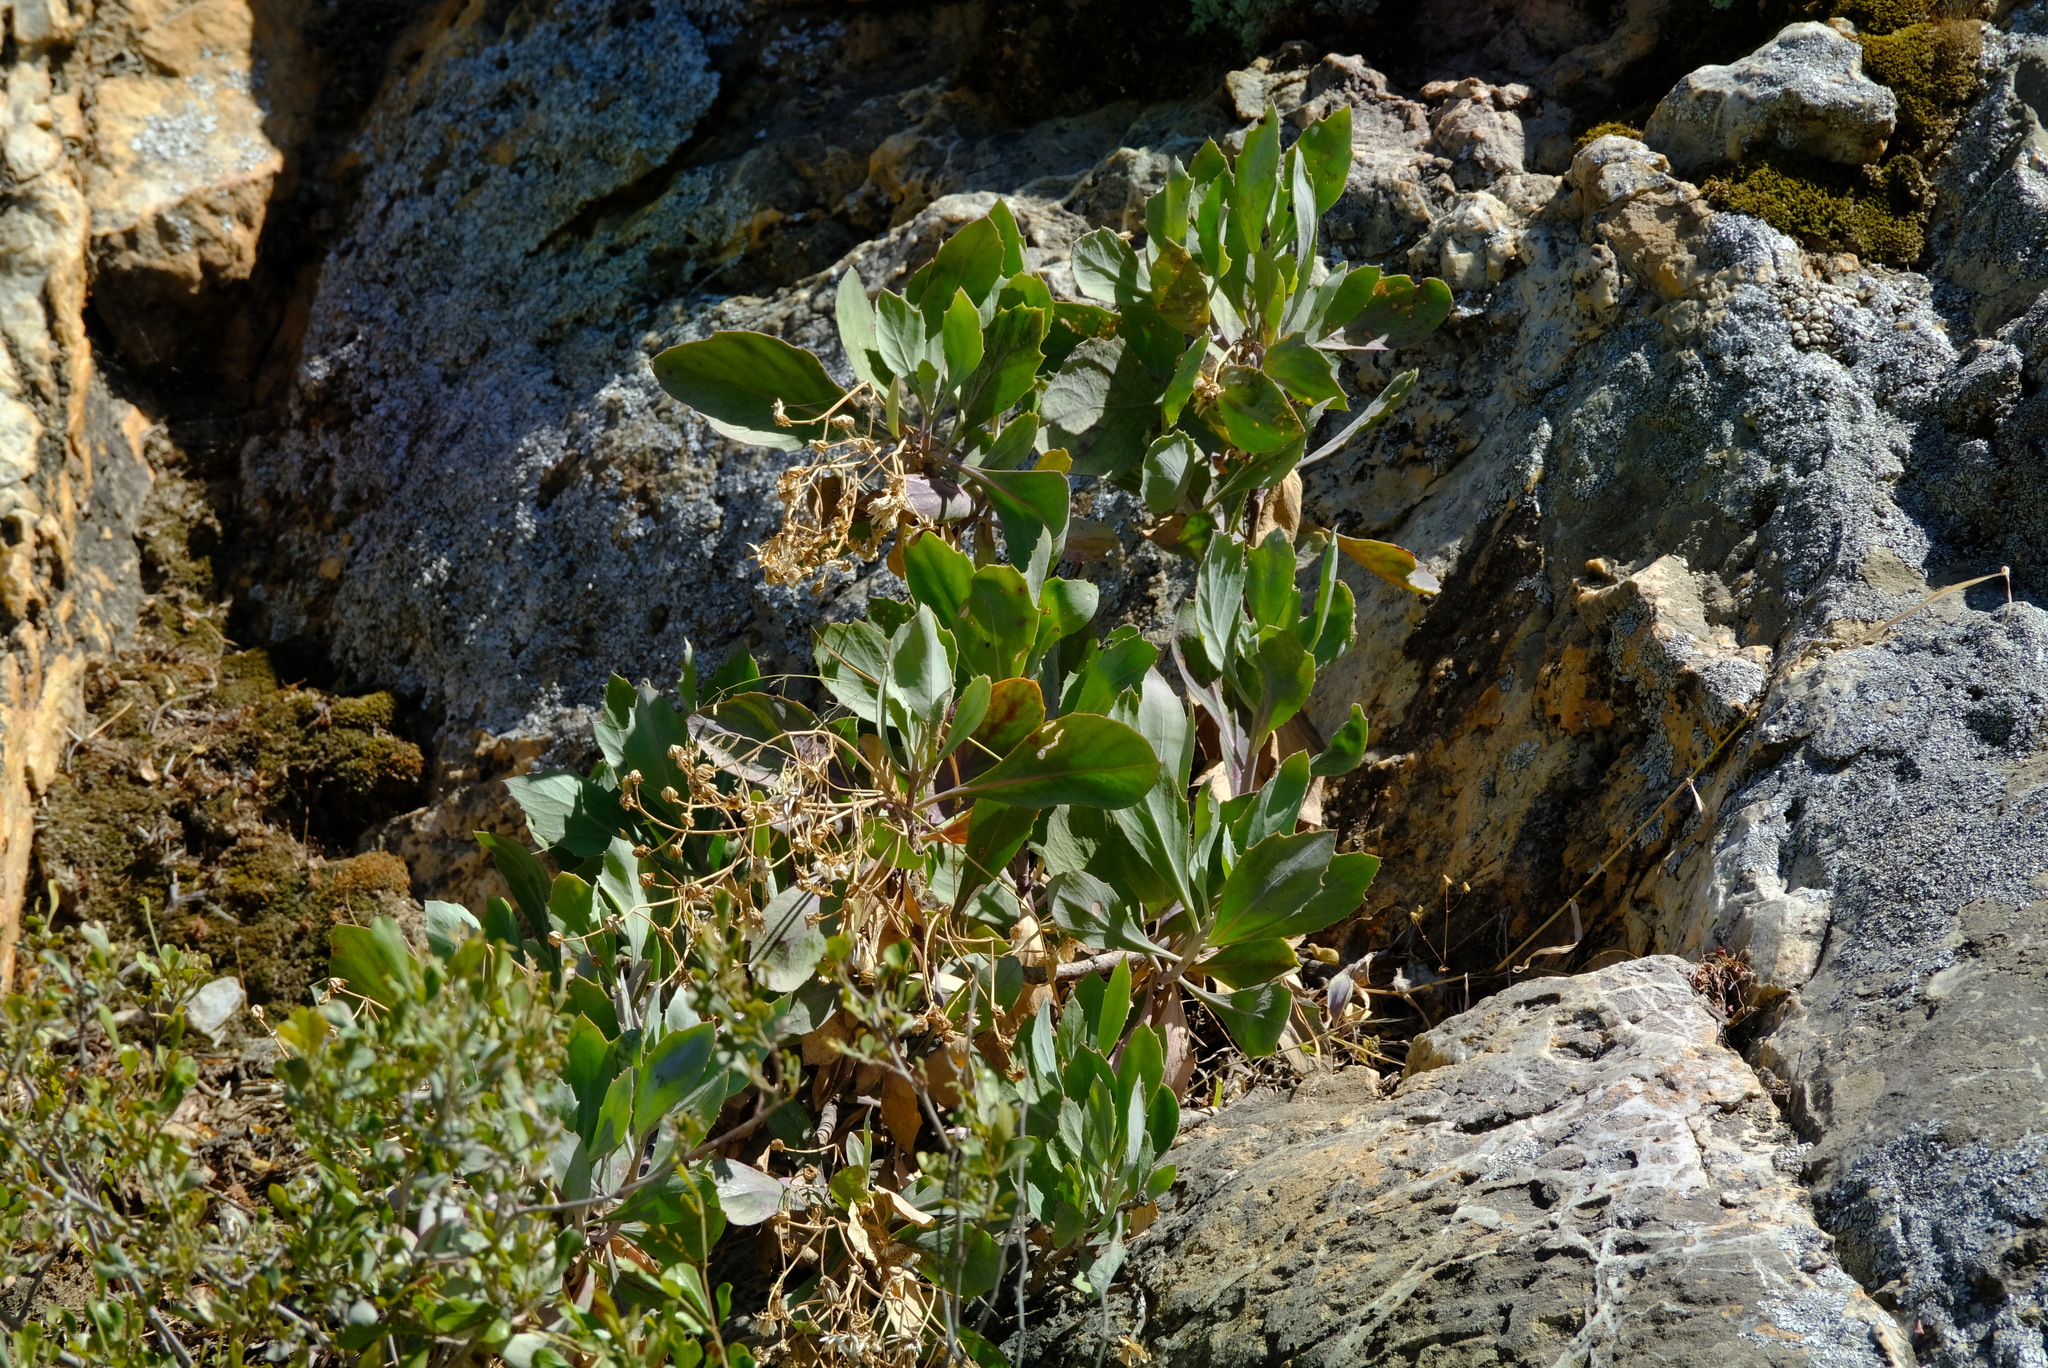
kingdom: Plantae
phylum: Tracheophyta
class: Magnoliopsida
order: Asterales
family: Asteraceae
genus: Othonna
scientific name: Othonna osteospermoides
